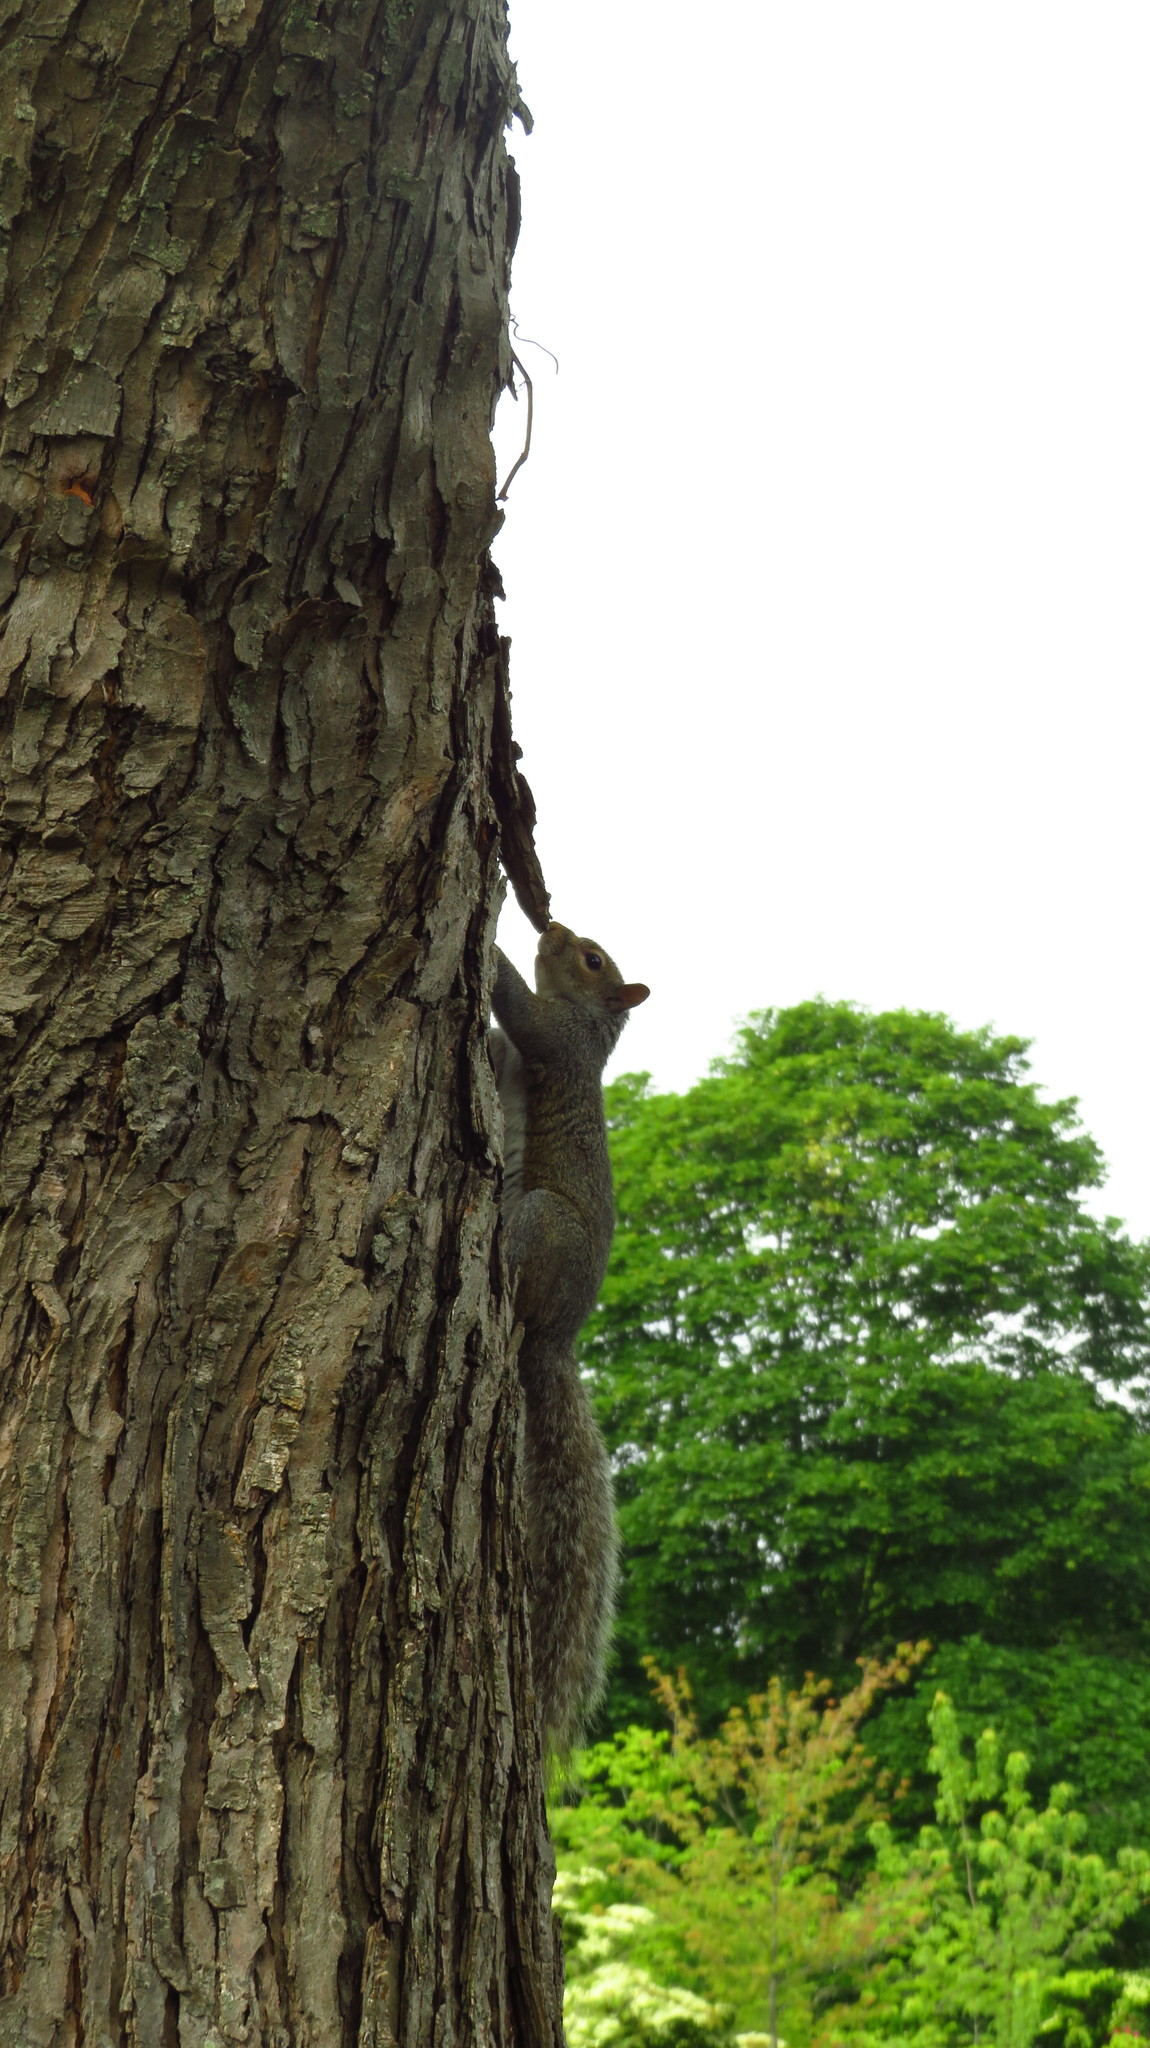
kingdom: Animalia
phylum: Chordata
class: Mammalia
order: Rodentia
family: Sciuridae
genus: Sciurus
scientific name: Sciurus carolinensis
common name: Eastern gray squirrel
